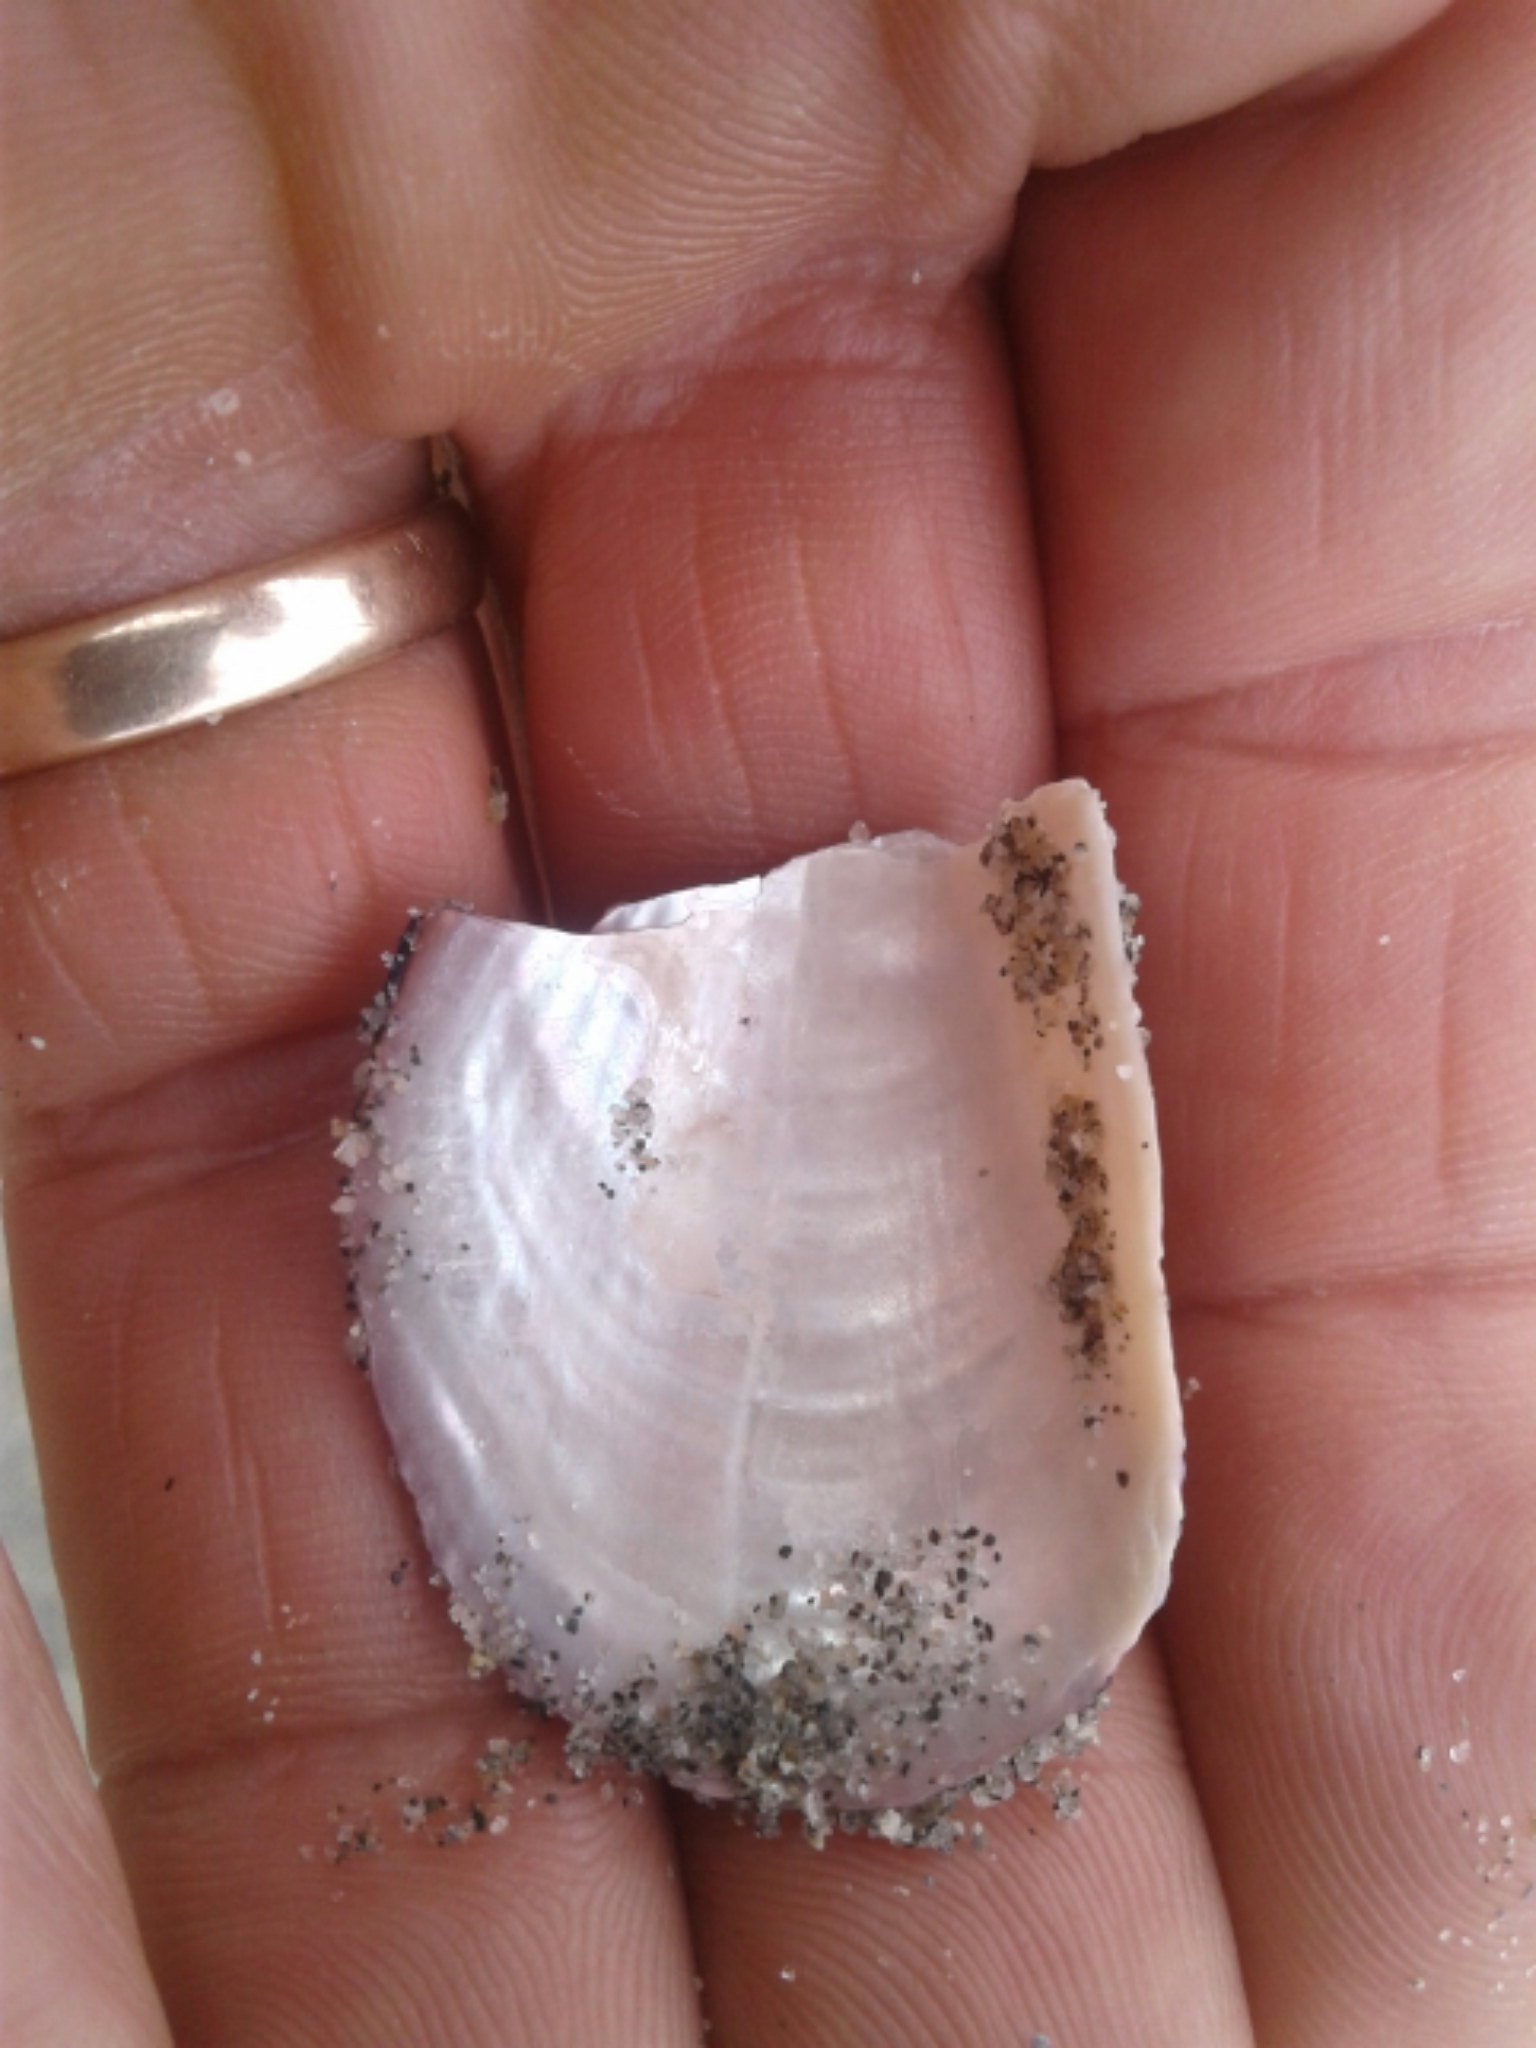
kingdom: Animalia
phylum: Mollusca
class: Bivalvia
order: Mytilida
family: Mytilidae
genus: Aulacomya
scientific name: Aulacomya maoriana
